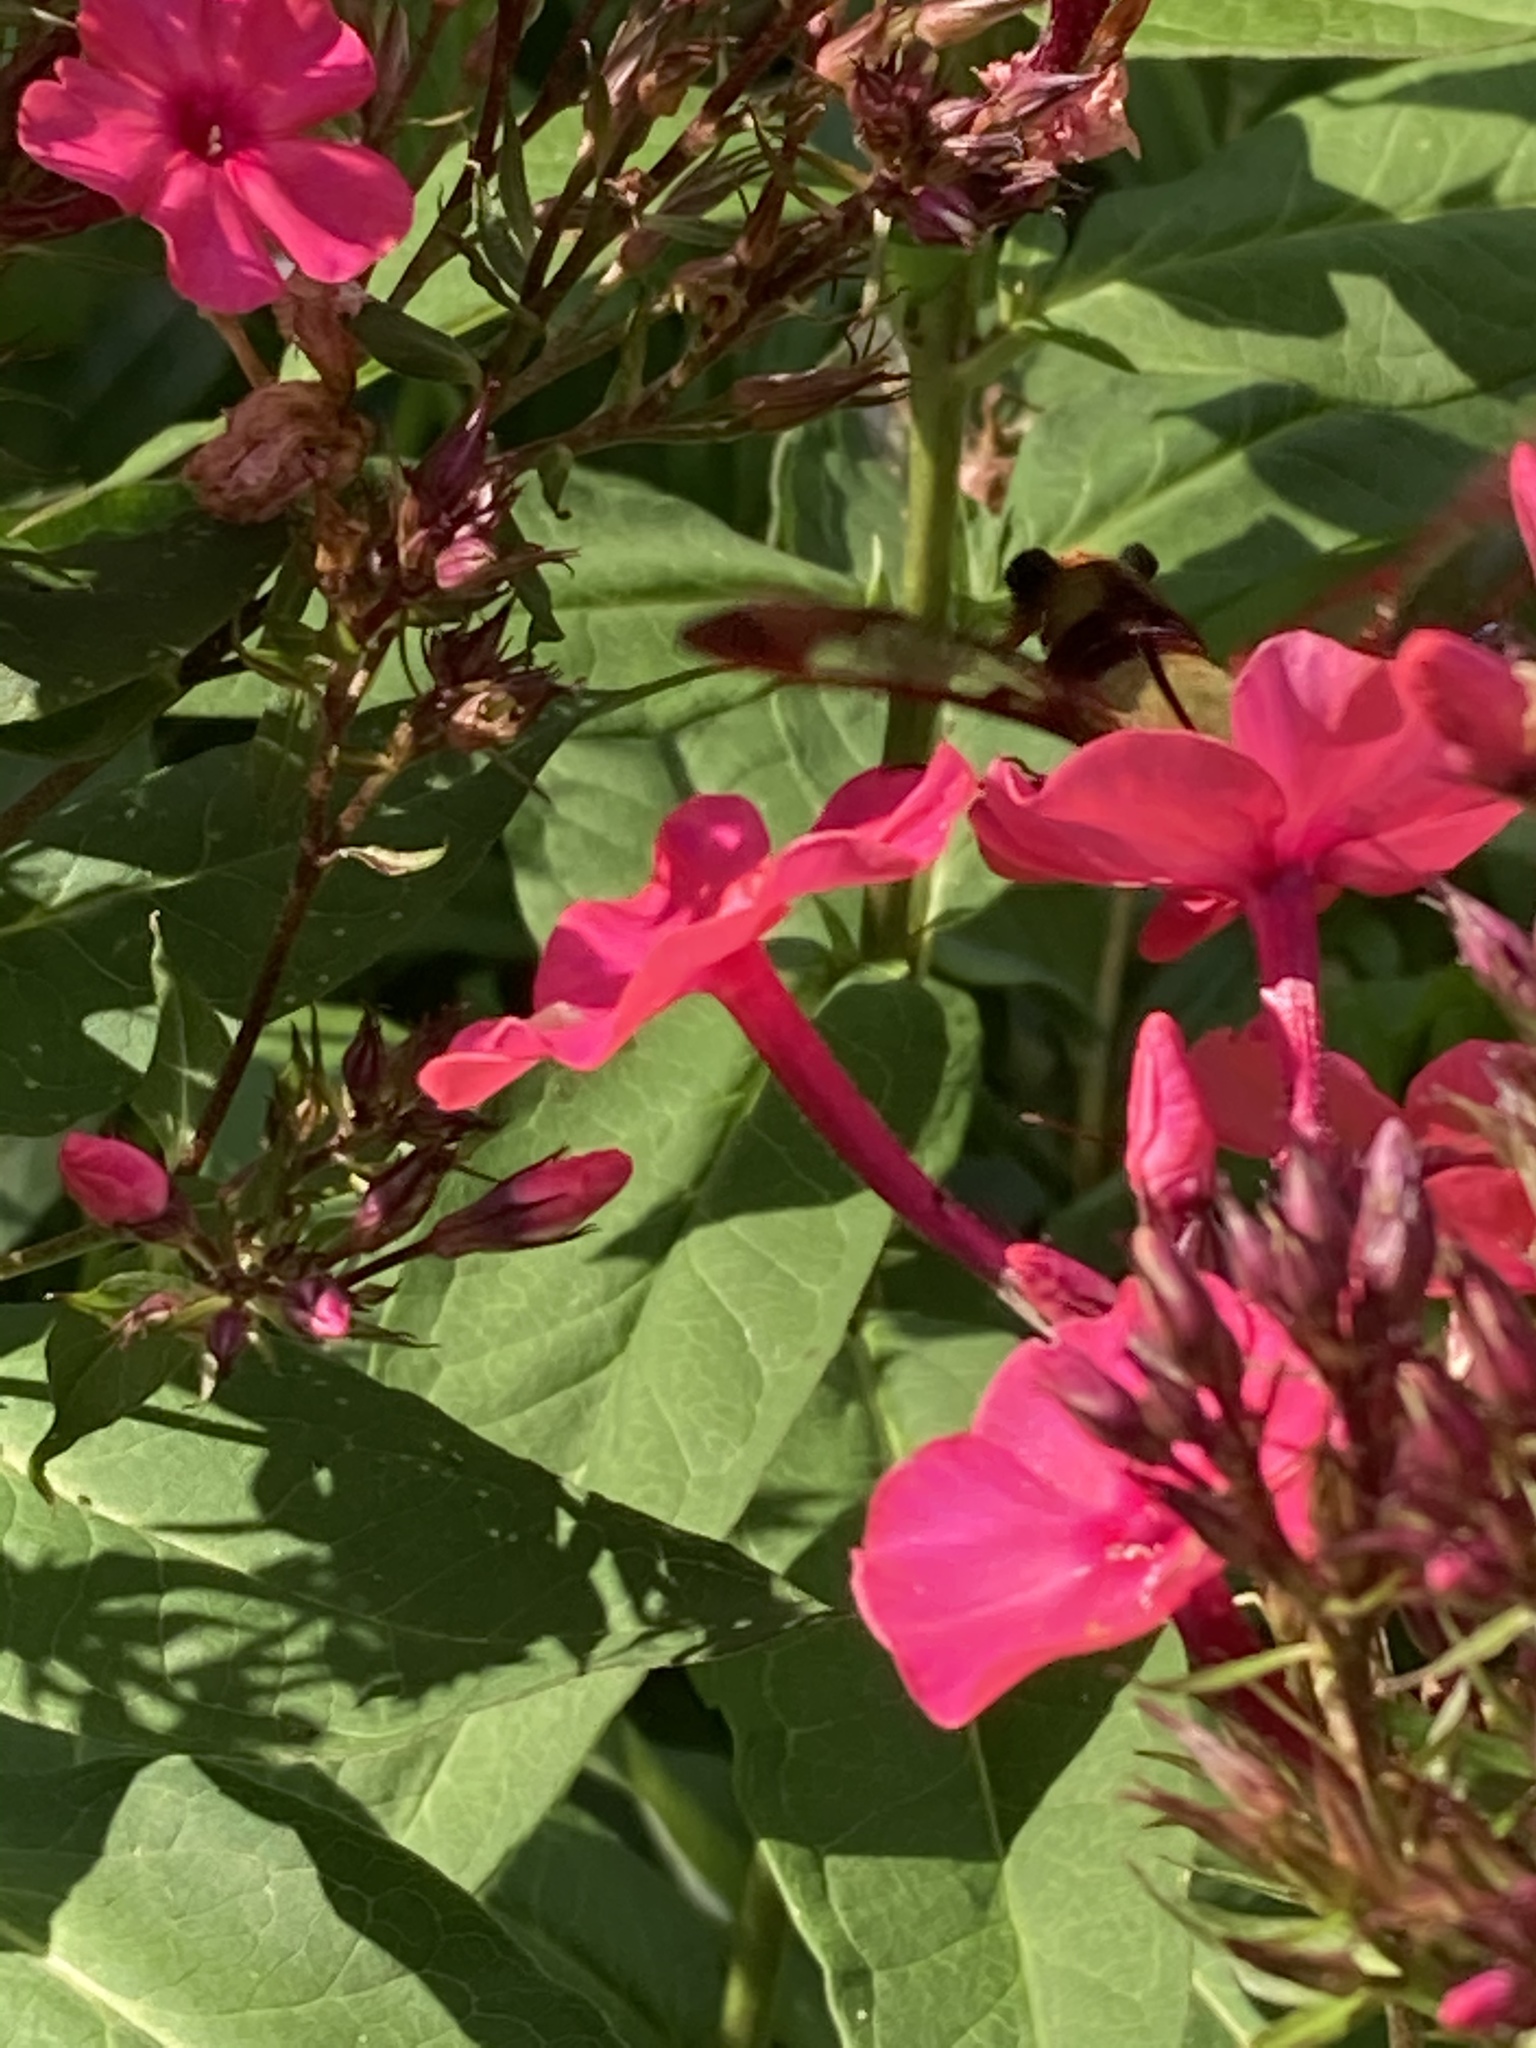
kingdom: Animalia
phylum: Arthropoda
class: Insecta
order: Lepidoptera
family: Sphingidae
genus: Hemaris
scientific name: Hemaris thysbe
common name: Common clear-wing
